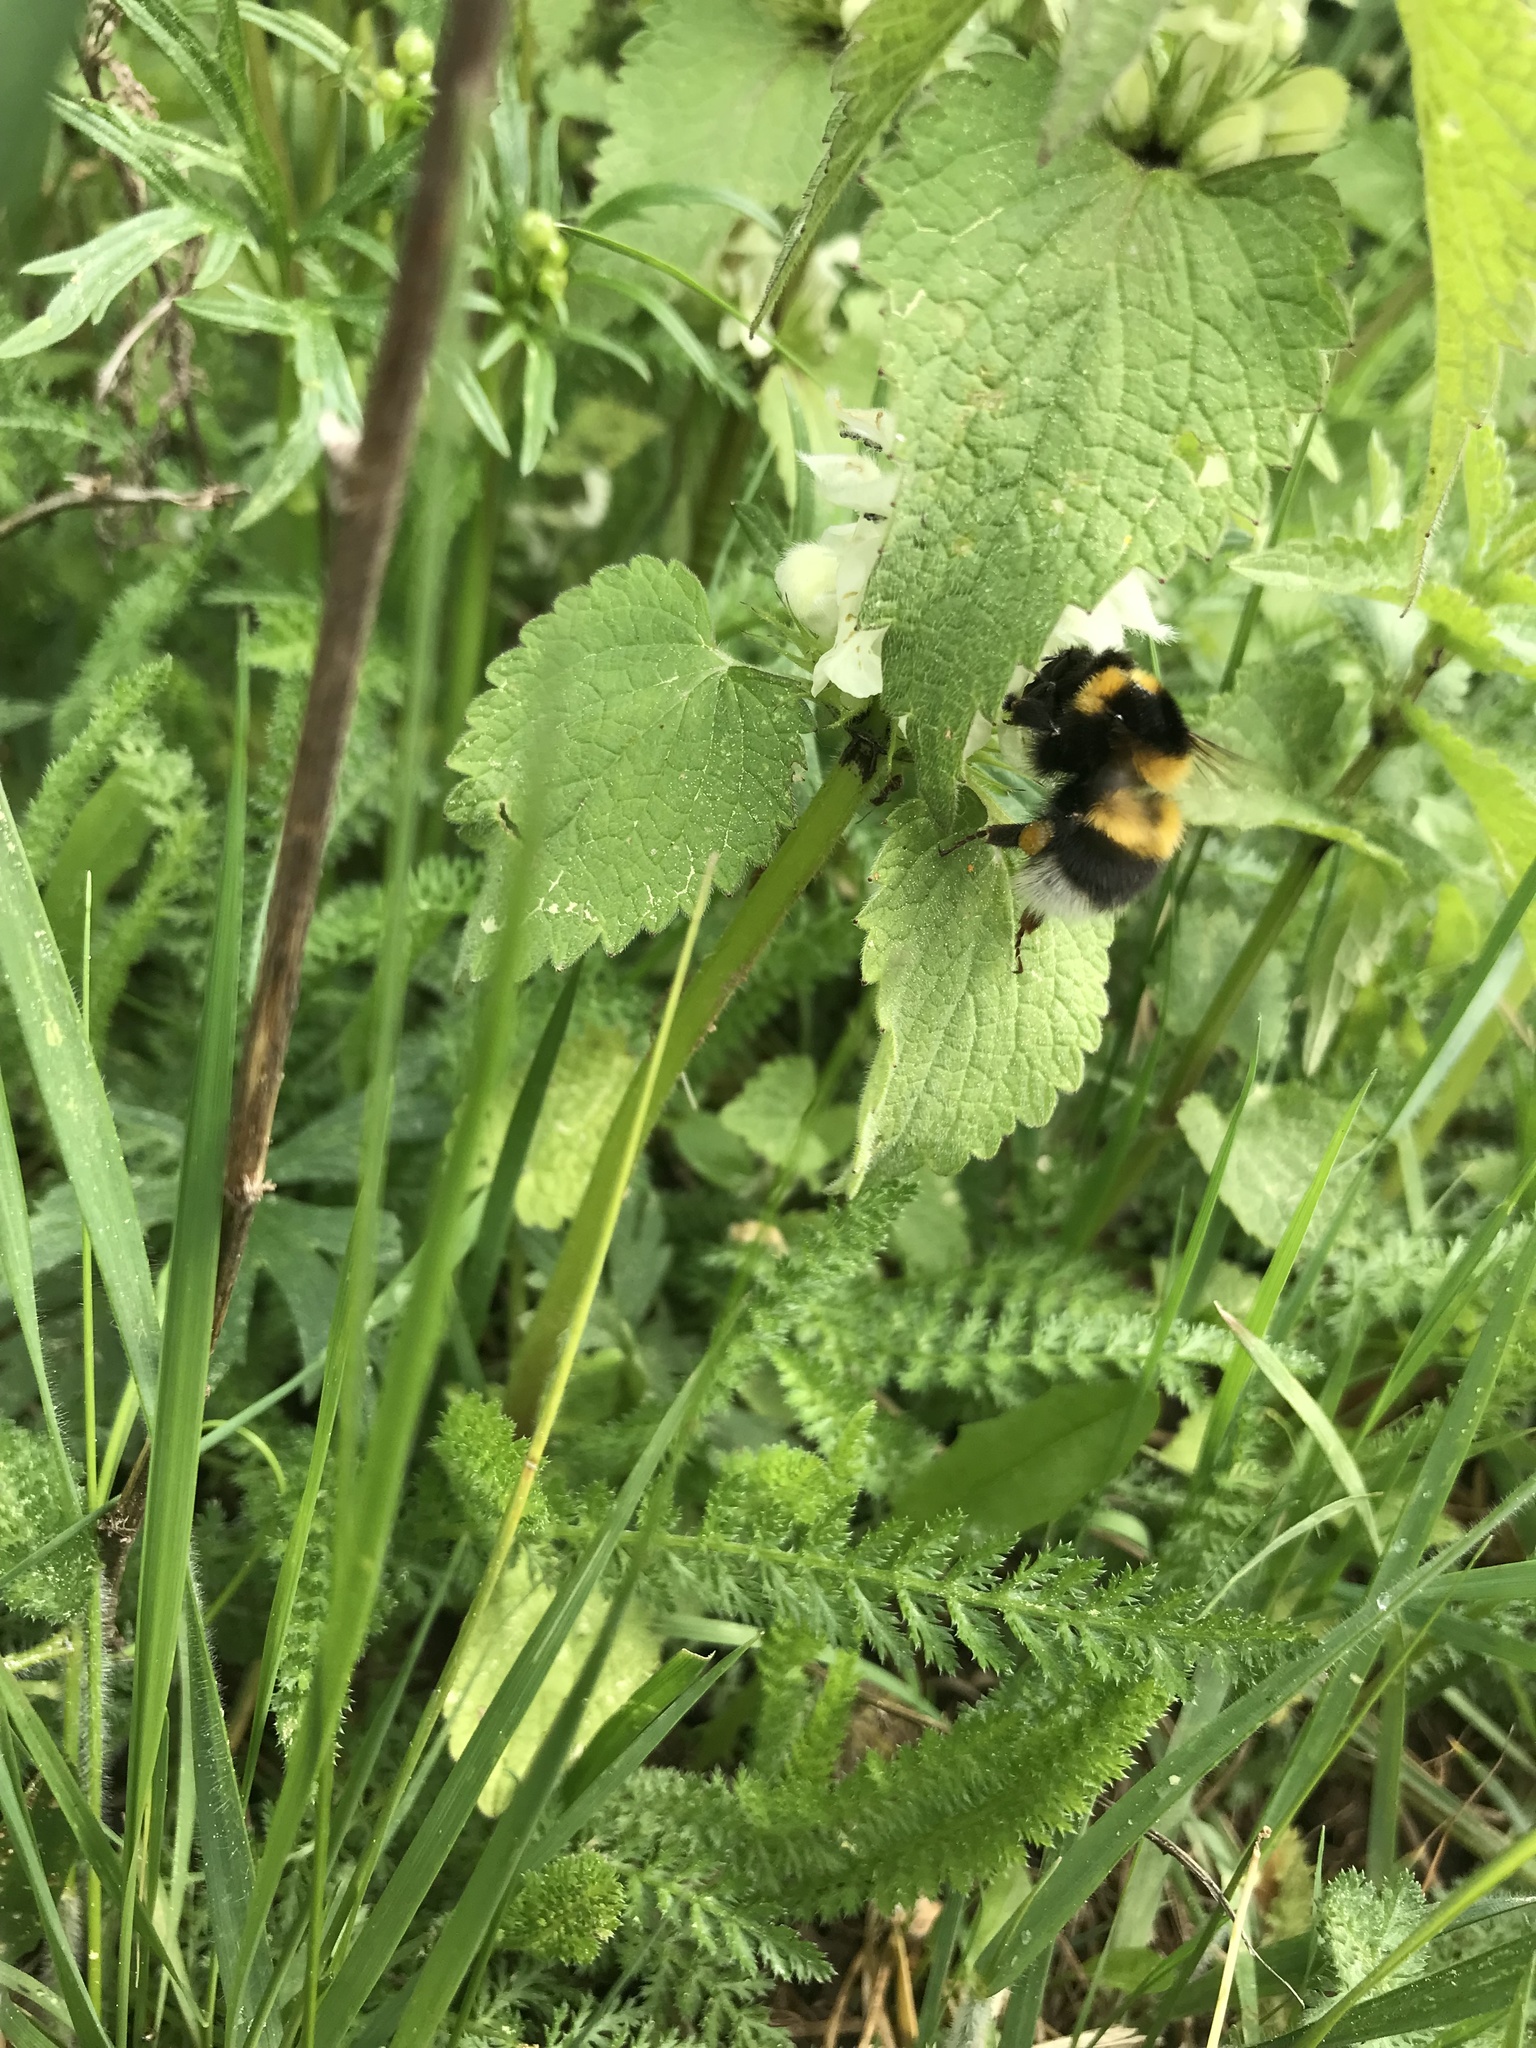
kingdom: Animalia
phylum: Arthropoda
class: Insecta
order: Hymenoptera
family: Apidae
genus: Bombus
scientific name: Bombus hortorum
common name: Garden bumblebee
